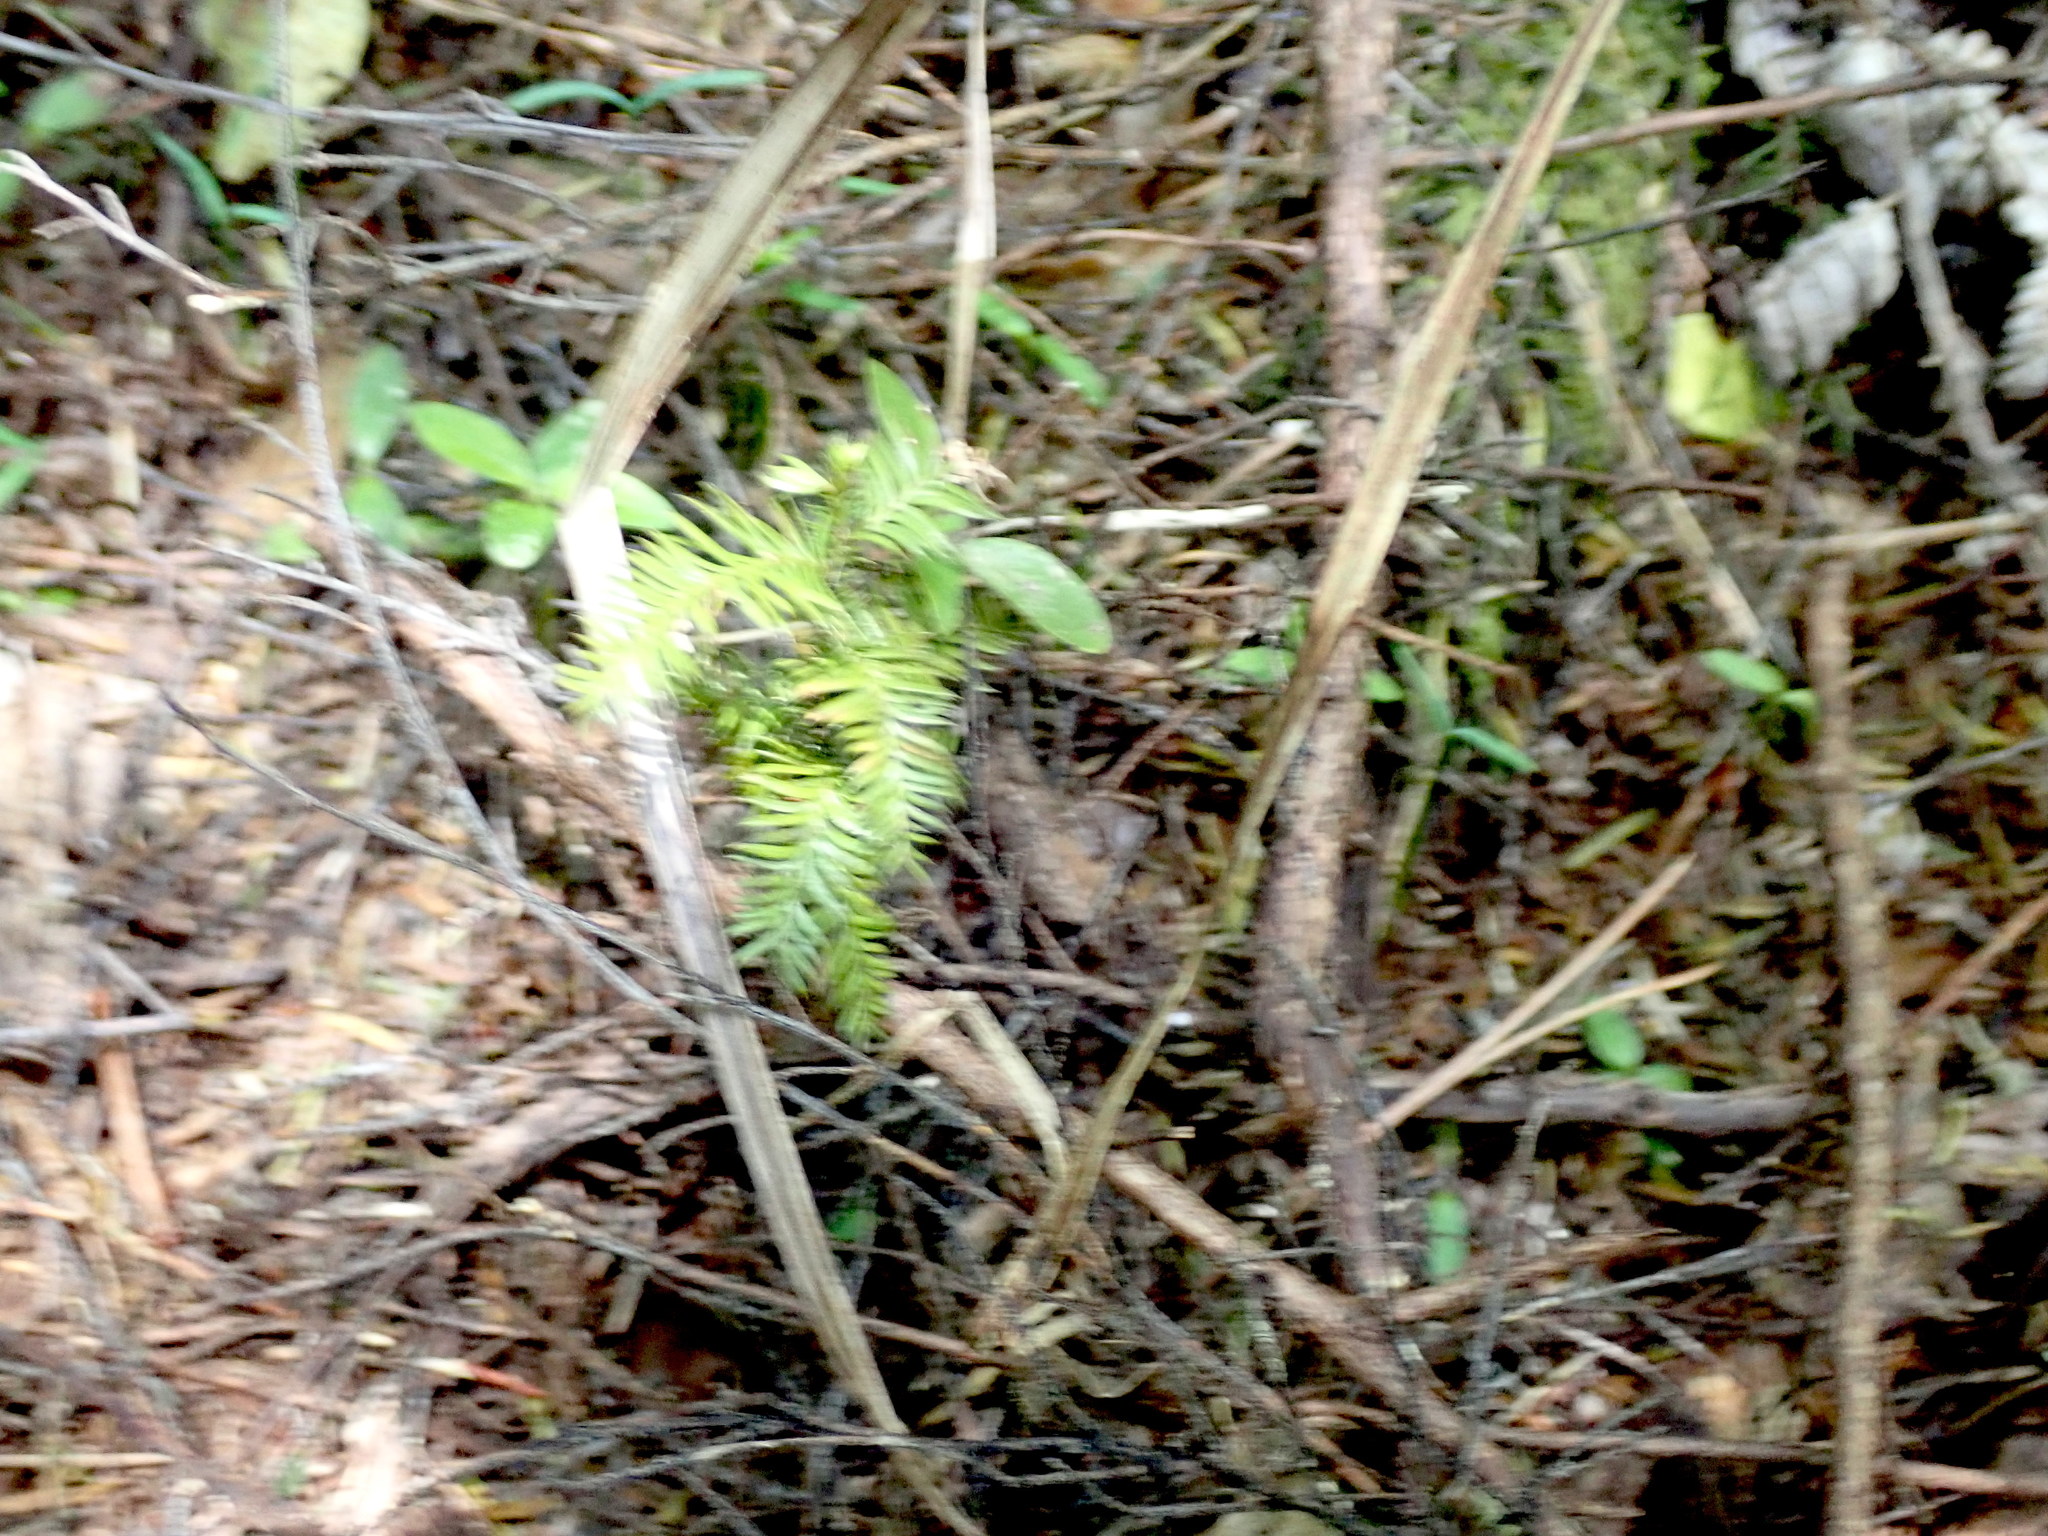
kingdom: Plantae
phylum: Tracheophyta
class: Pinopsida
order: Pinales
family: Podocarpaceae
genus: Dacrycarpus
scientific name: Dacrycarpus dacrydioides
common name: White pine
